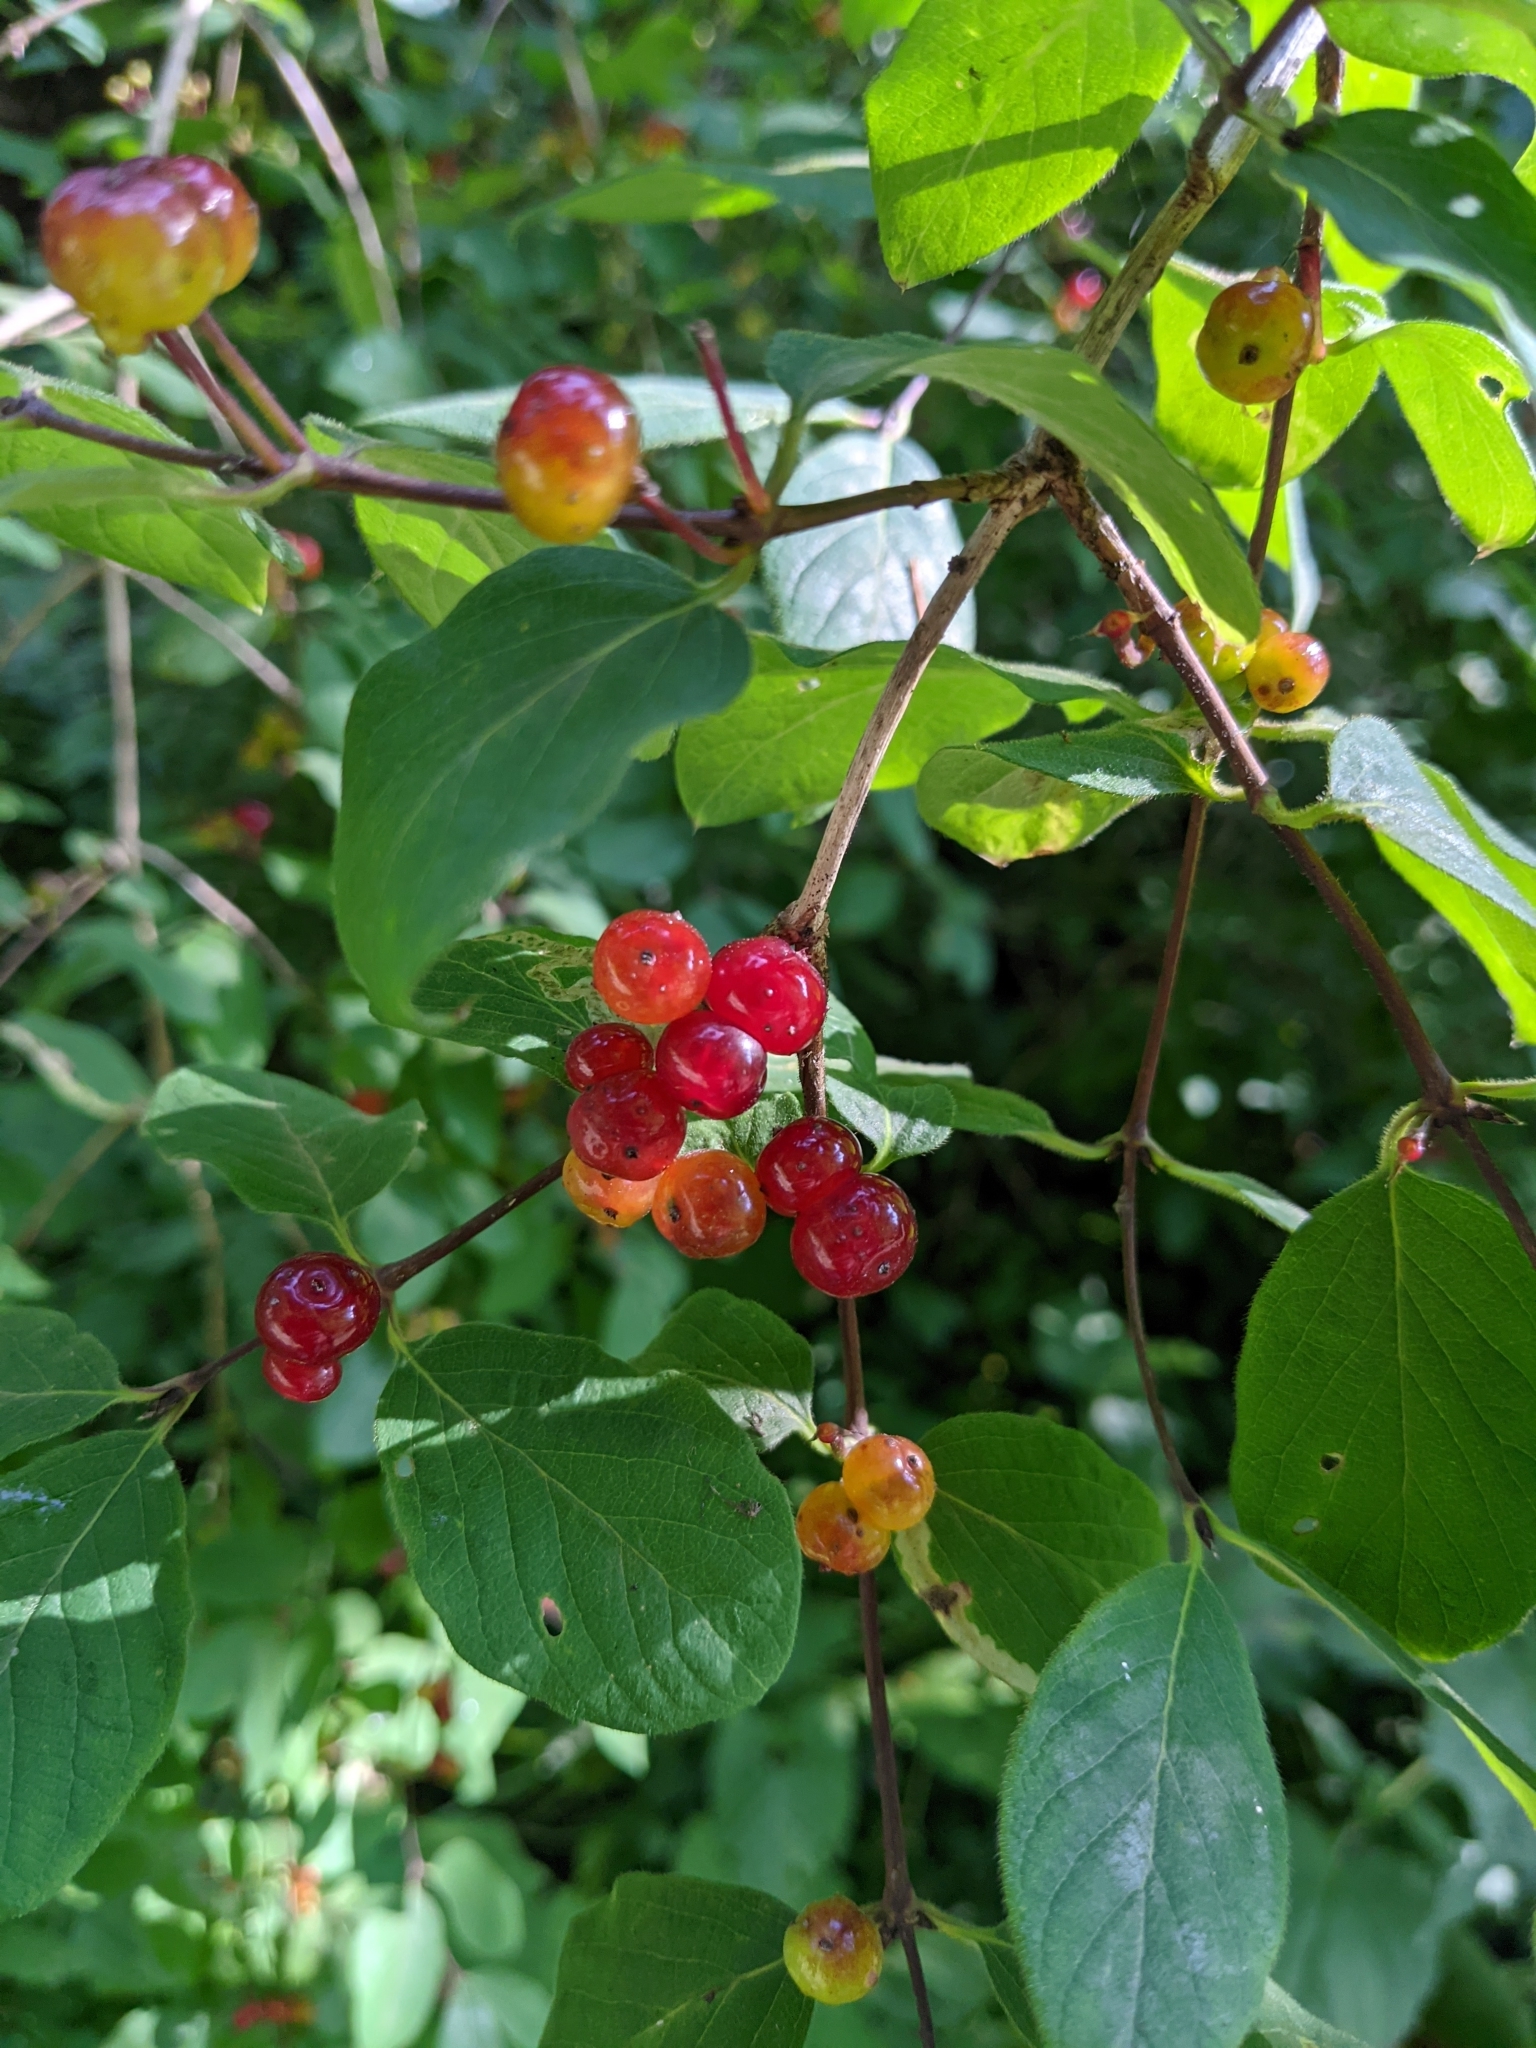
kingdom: Plantae
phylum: Tracheophyta
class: Magnoliopsida
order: Dipsacales
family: Caprifoliaceae
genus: Lonicera
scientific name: Lonicera xylosteum
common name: Fly honeysuckle
